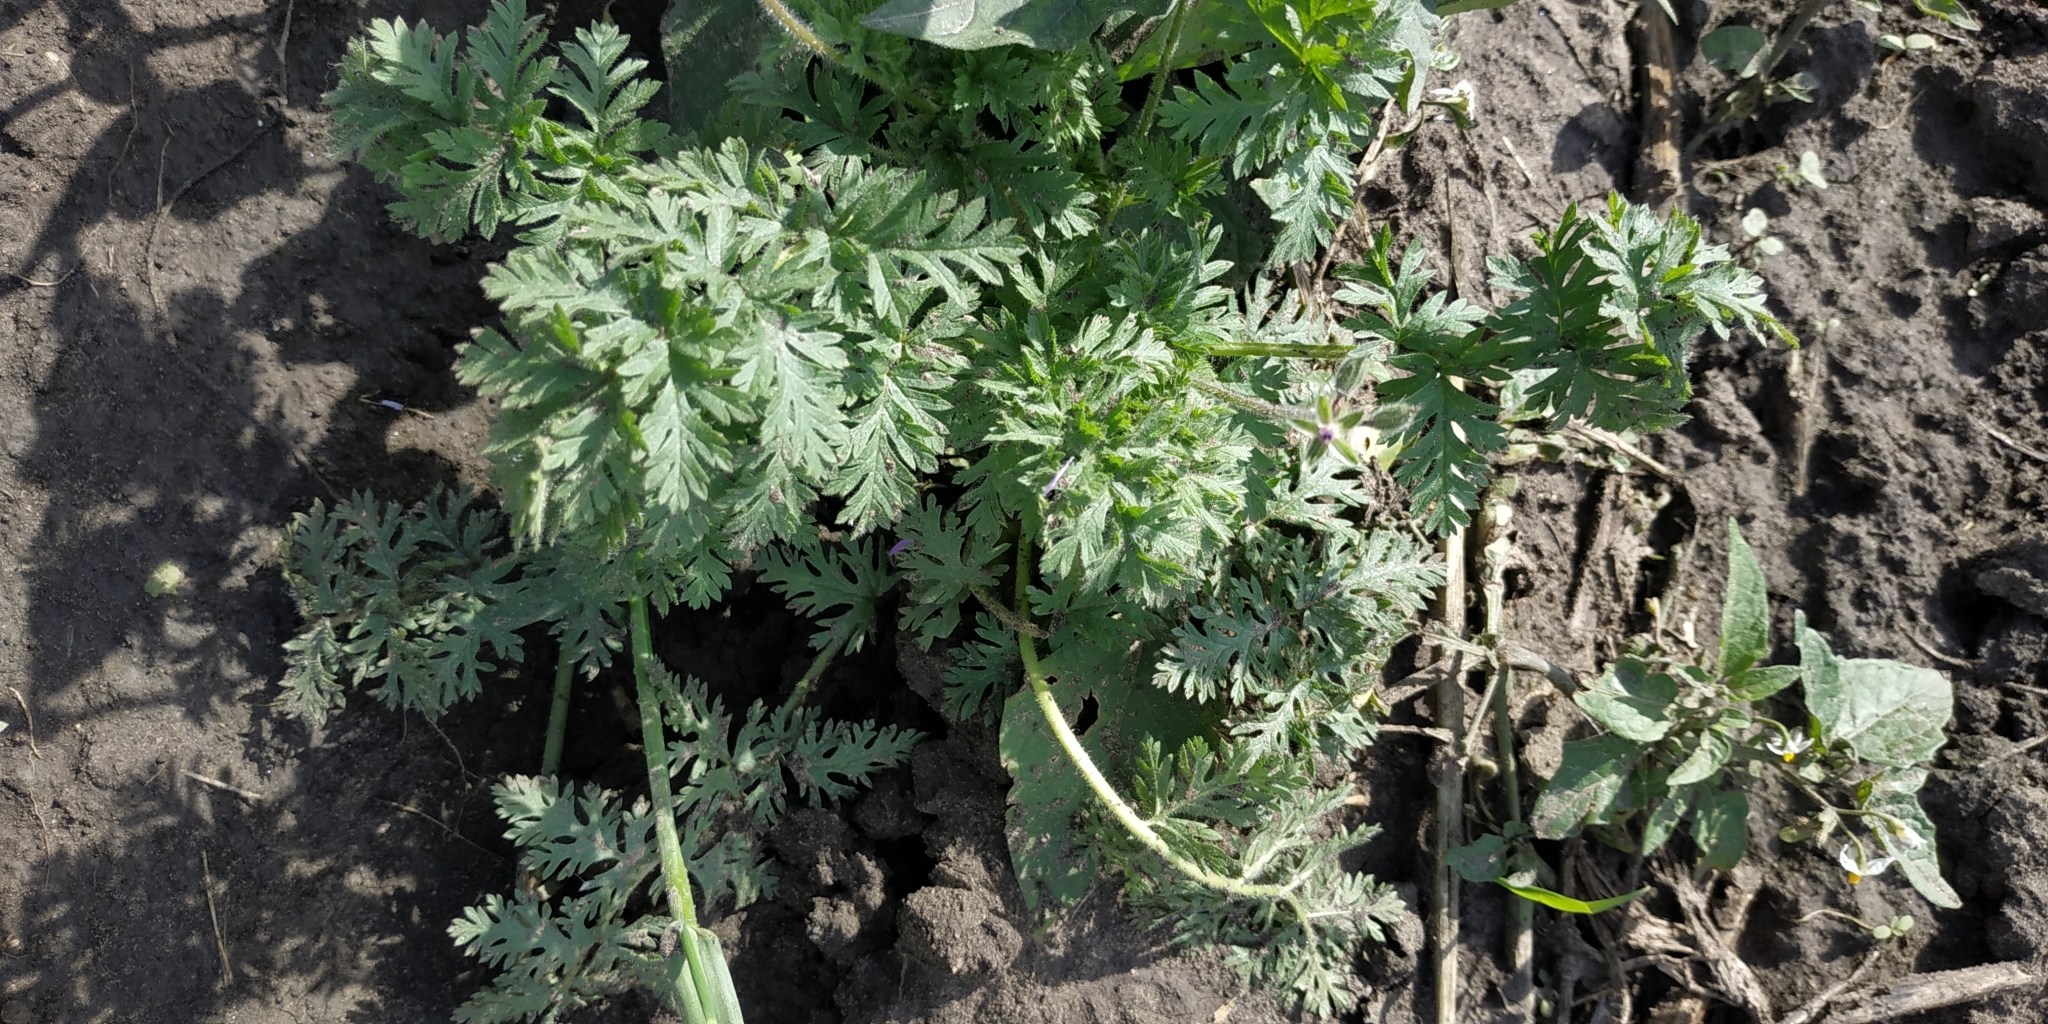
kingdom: Plantae
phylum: Tracheophyta
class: Magnoliopsida
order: Geraniales
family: Geraniaceae
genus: Erodium
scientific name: Erodium cicutarium
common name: Common stork's-bill
